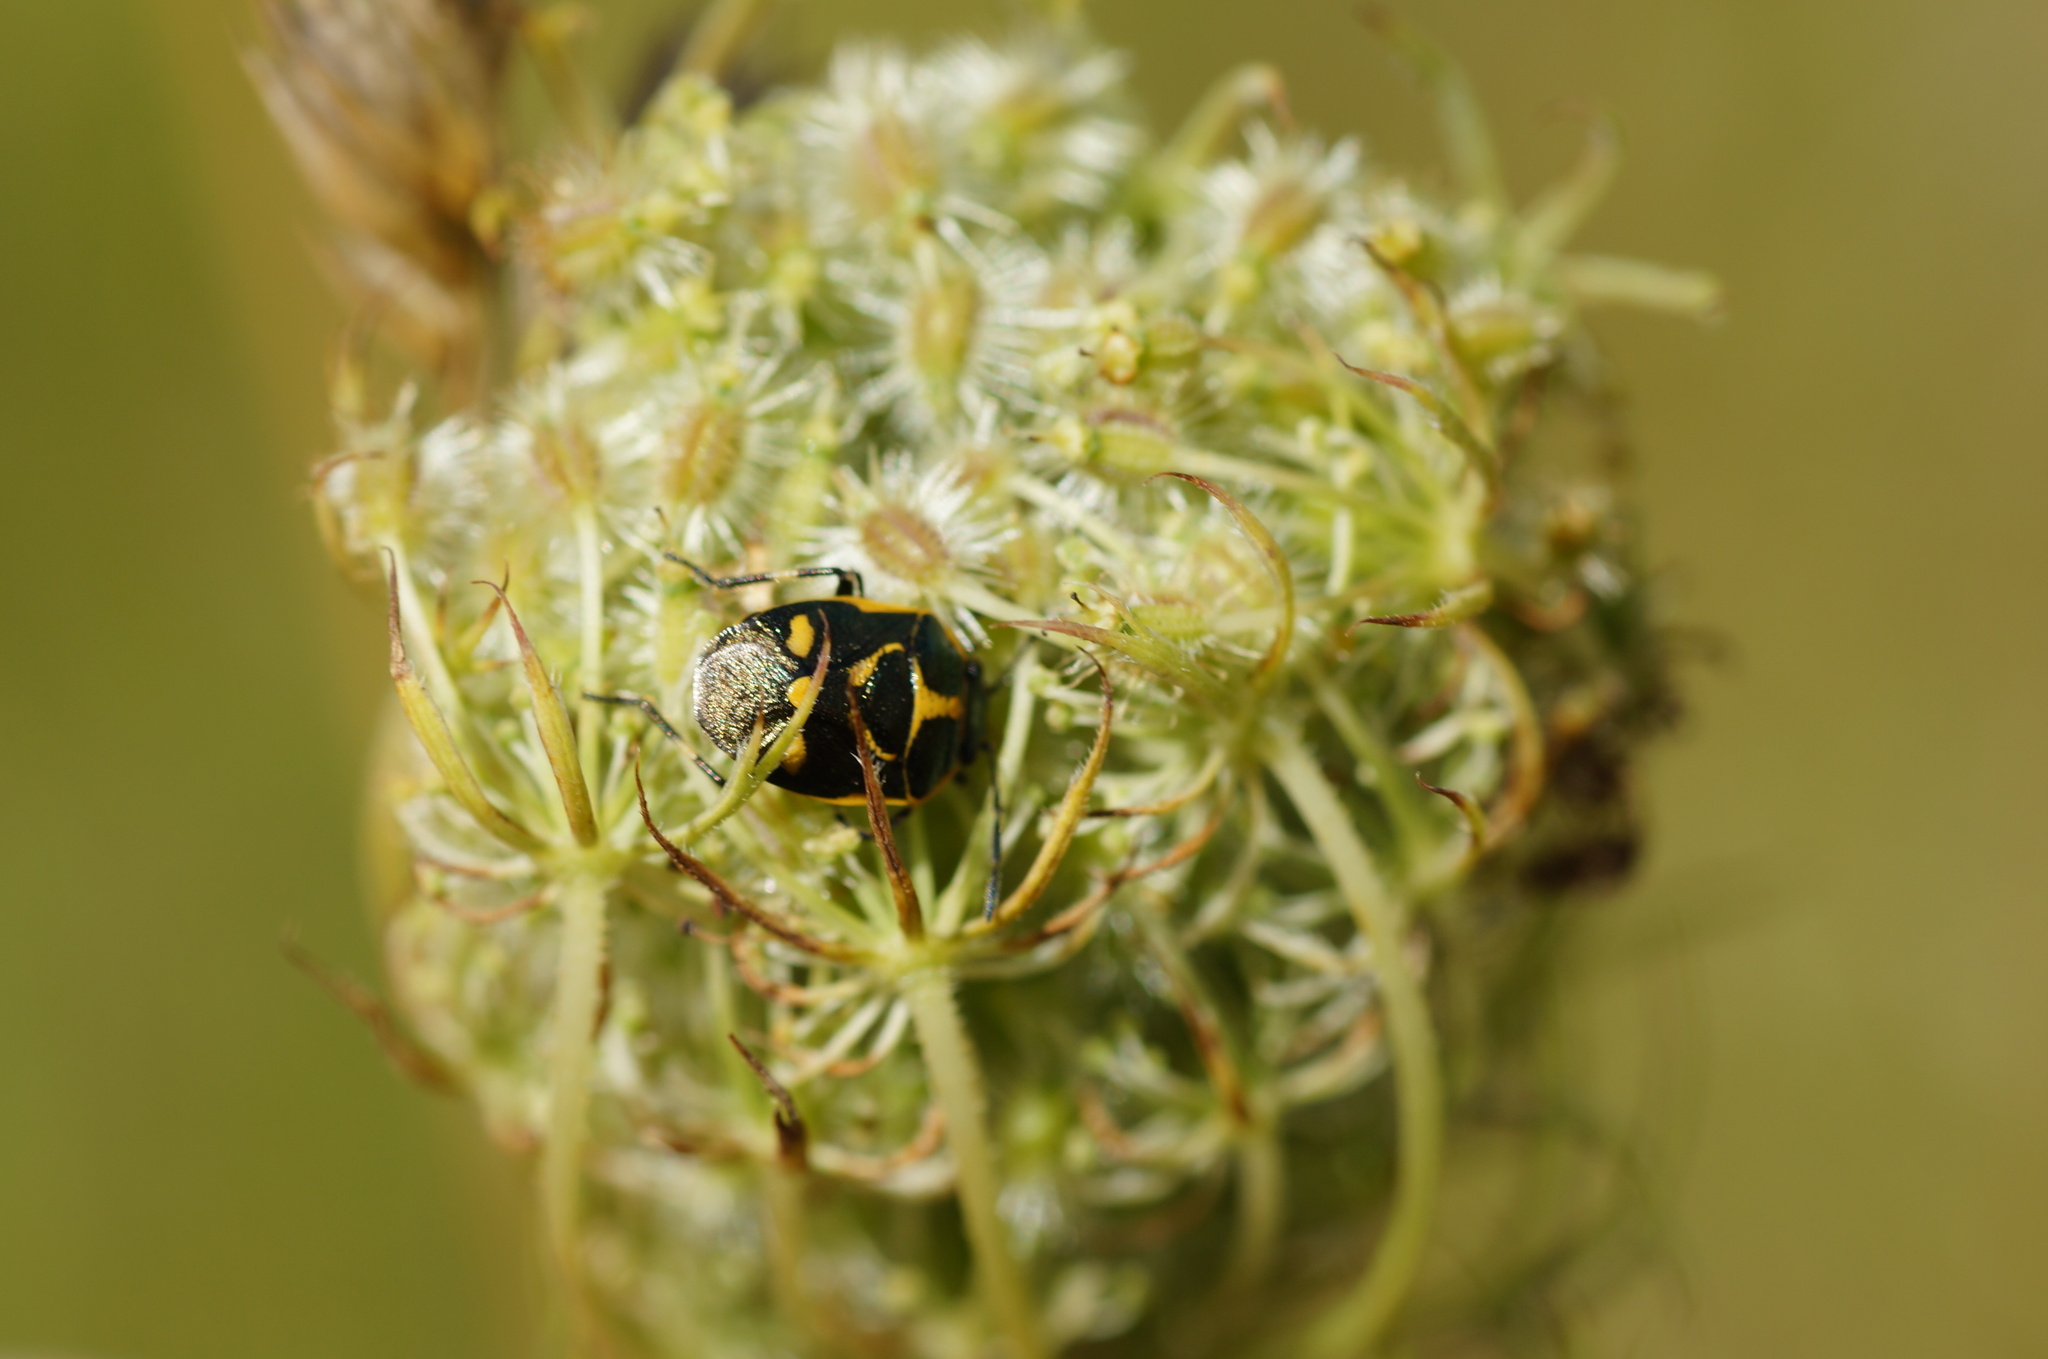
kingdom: Animalia
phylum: Arthropoda
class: Insecta
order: Hemiptera
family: Pentatomidae
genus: Eurydema
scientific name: Eurydema oleracea
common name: Cabbage bug
